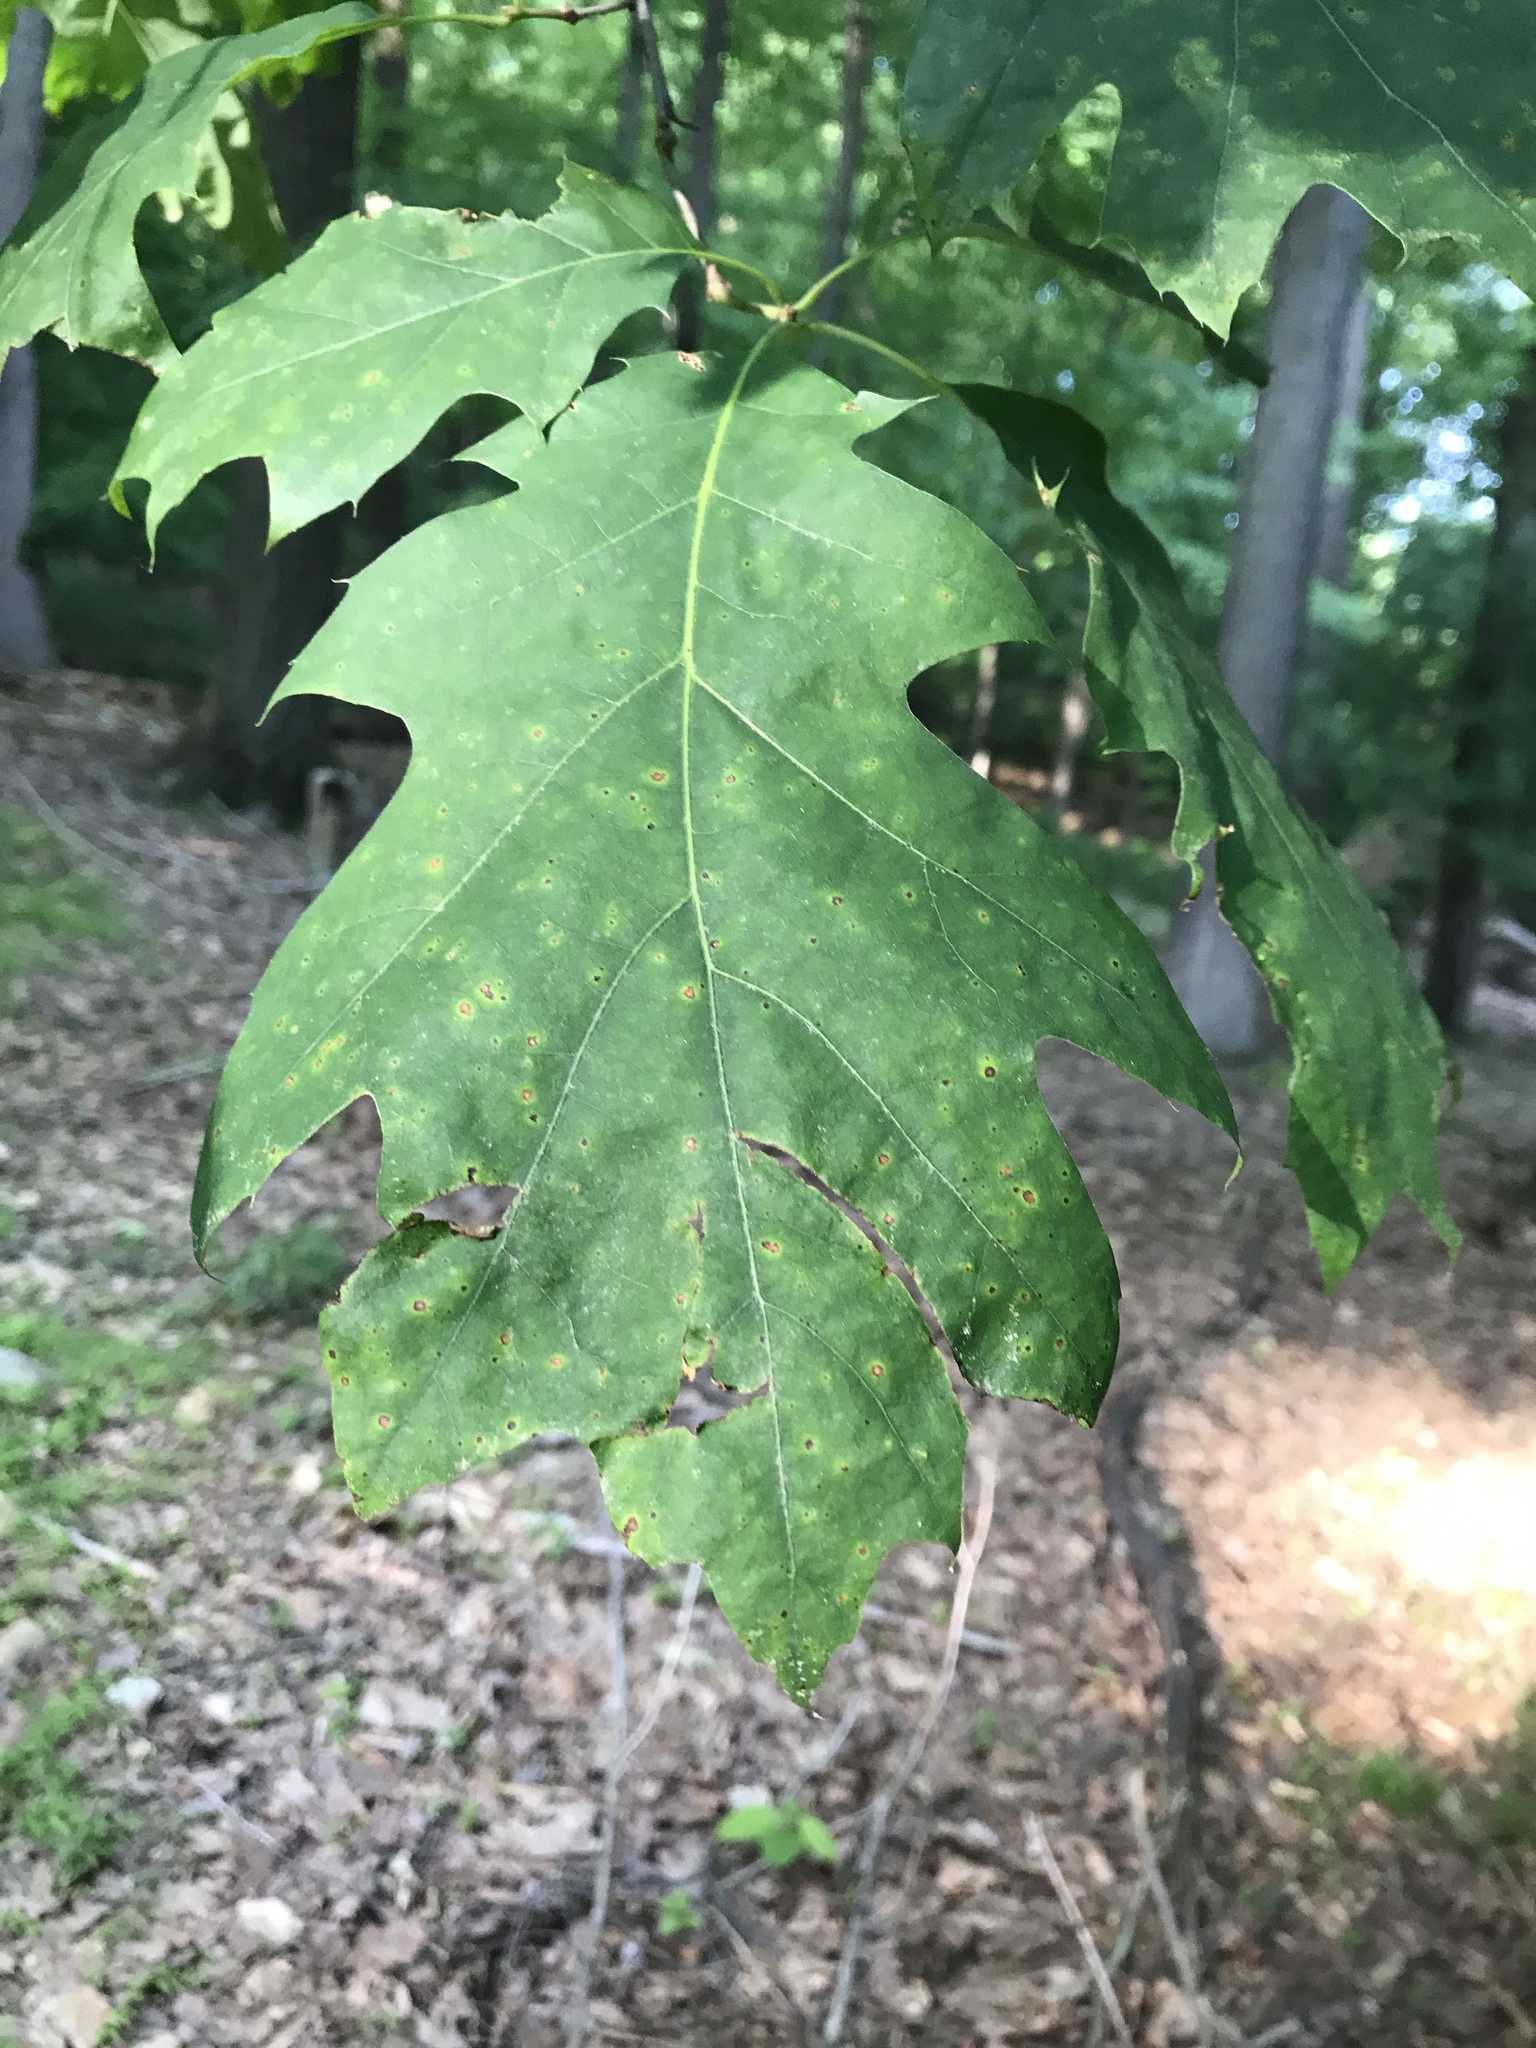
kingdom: Plantae
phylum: Tracheophyta
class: Magnoliopsida
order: Fagales
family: Fagaceae
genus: Quercus
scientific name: Quercus rubra
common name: Red oak
